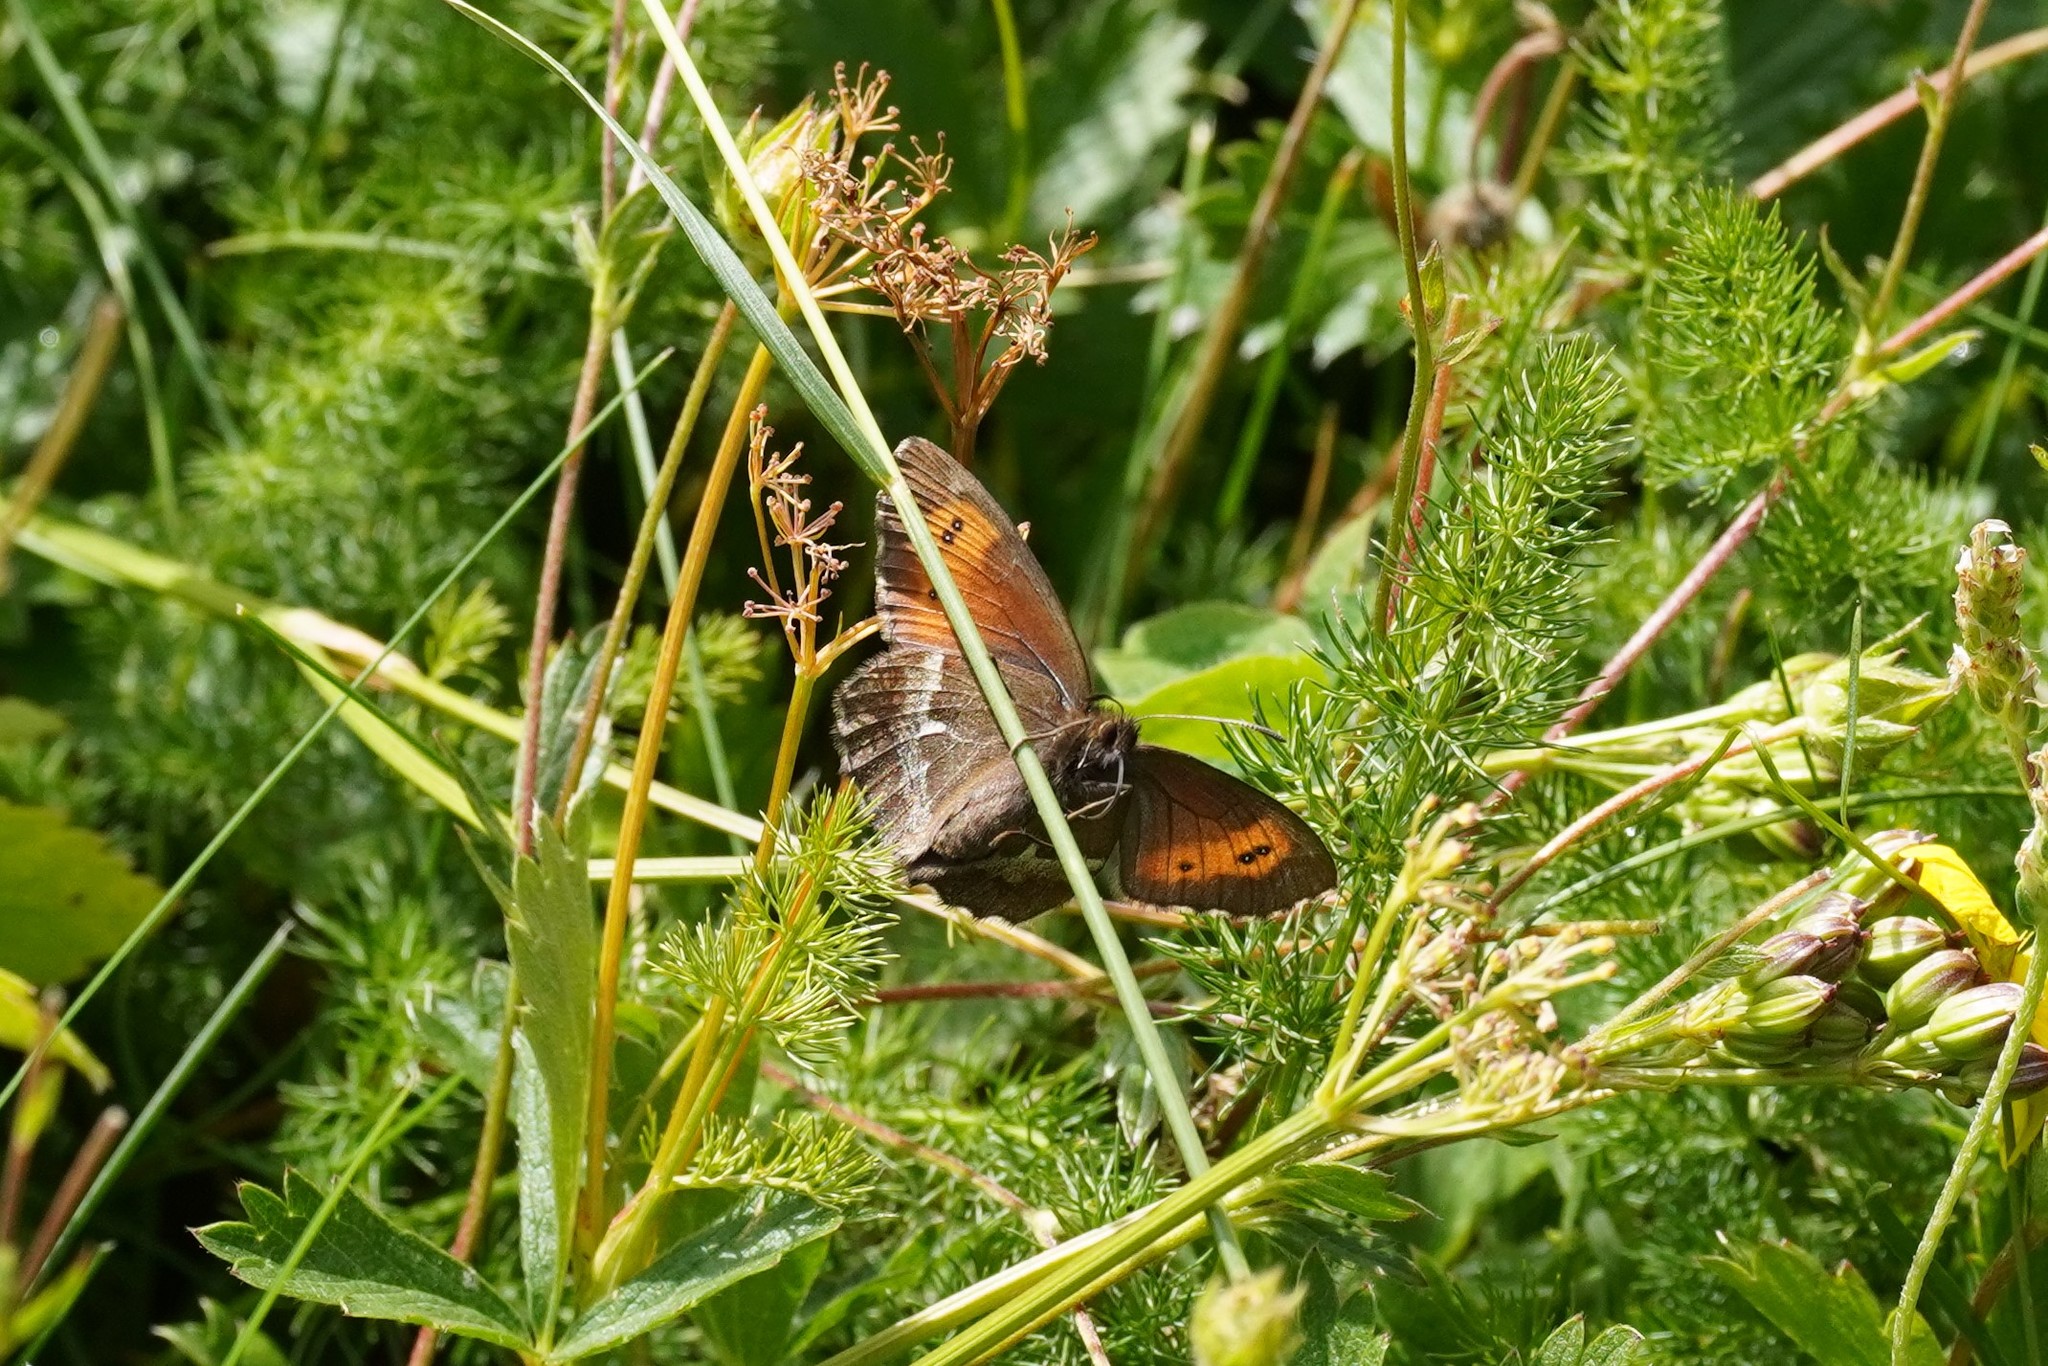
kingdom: Animalia
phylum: Arthropoda
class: Insecta
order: Lepidoptera
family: Nymphalidae
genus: Erebia
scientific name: Erebia euryale
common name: Large ringlet
